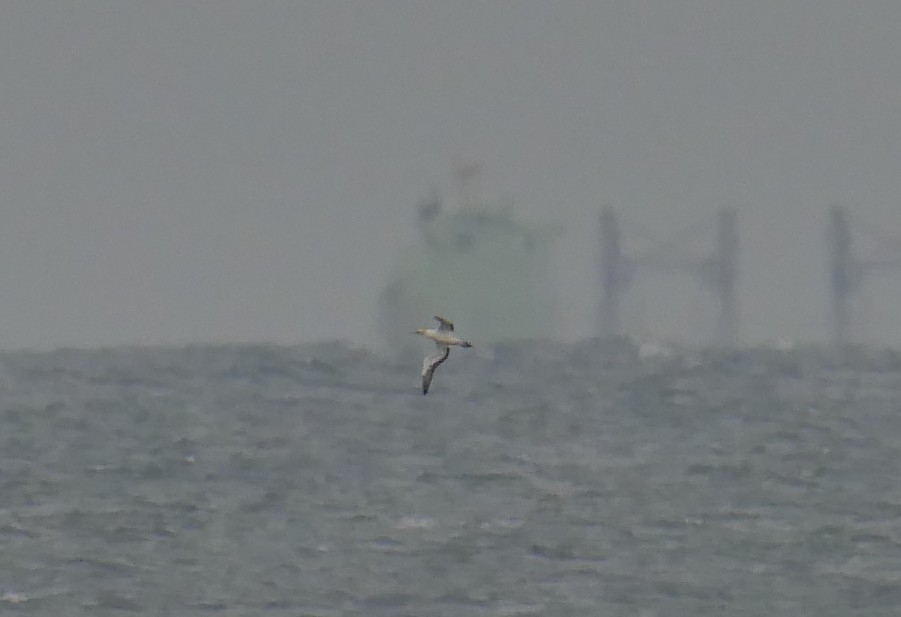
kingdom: Animalia
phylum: Chordata
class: Aves
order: Suliformes
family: Sulidae
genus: Morus
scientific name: Morus capensis
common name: Cape gannet
